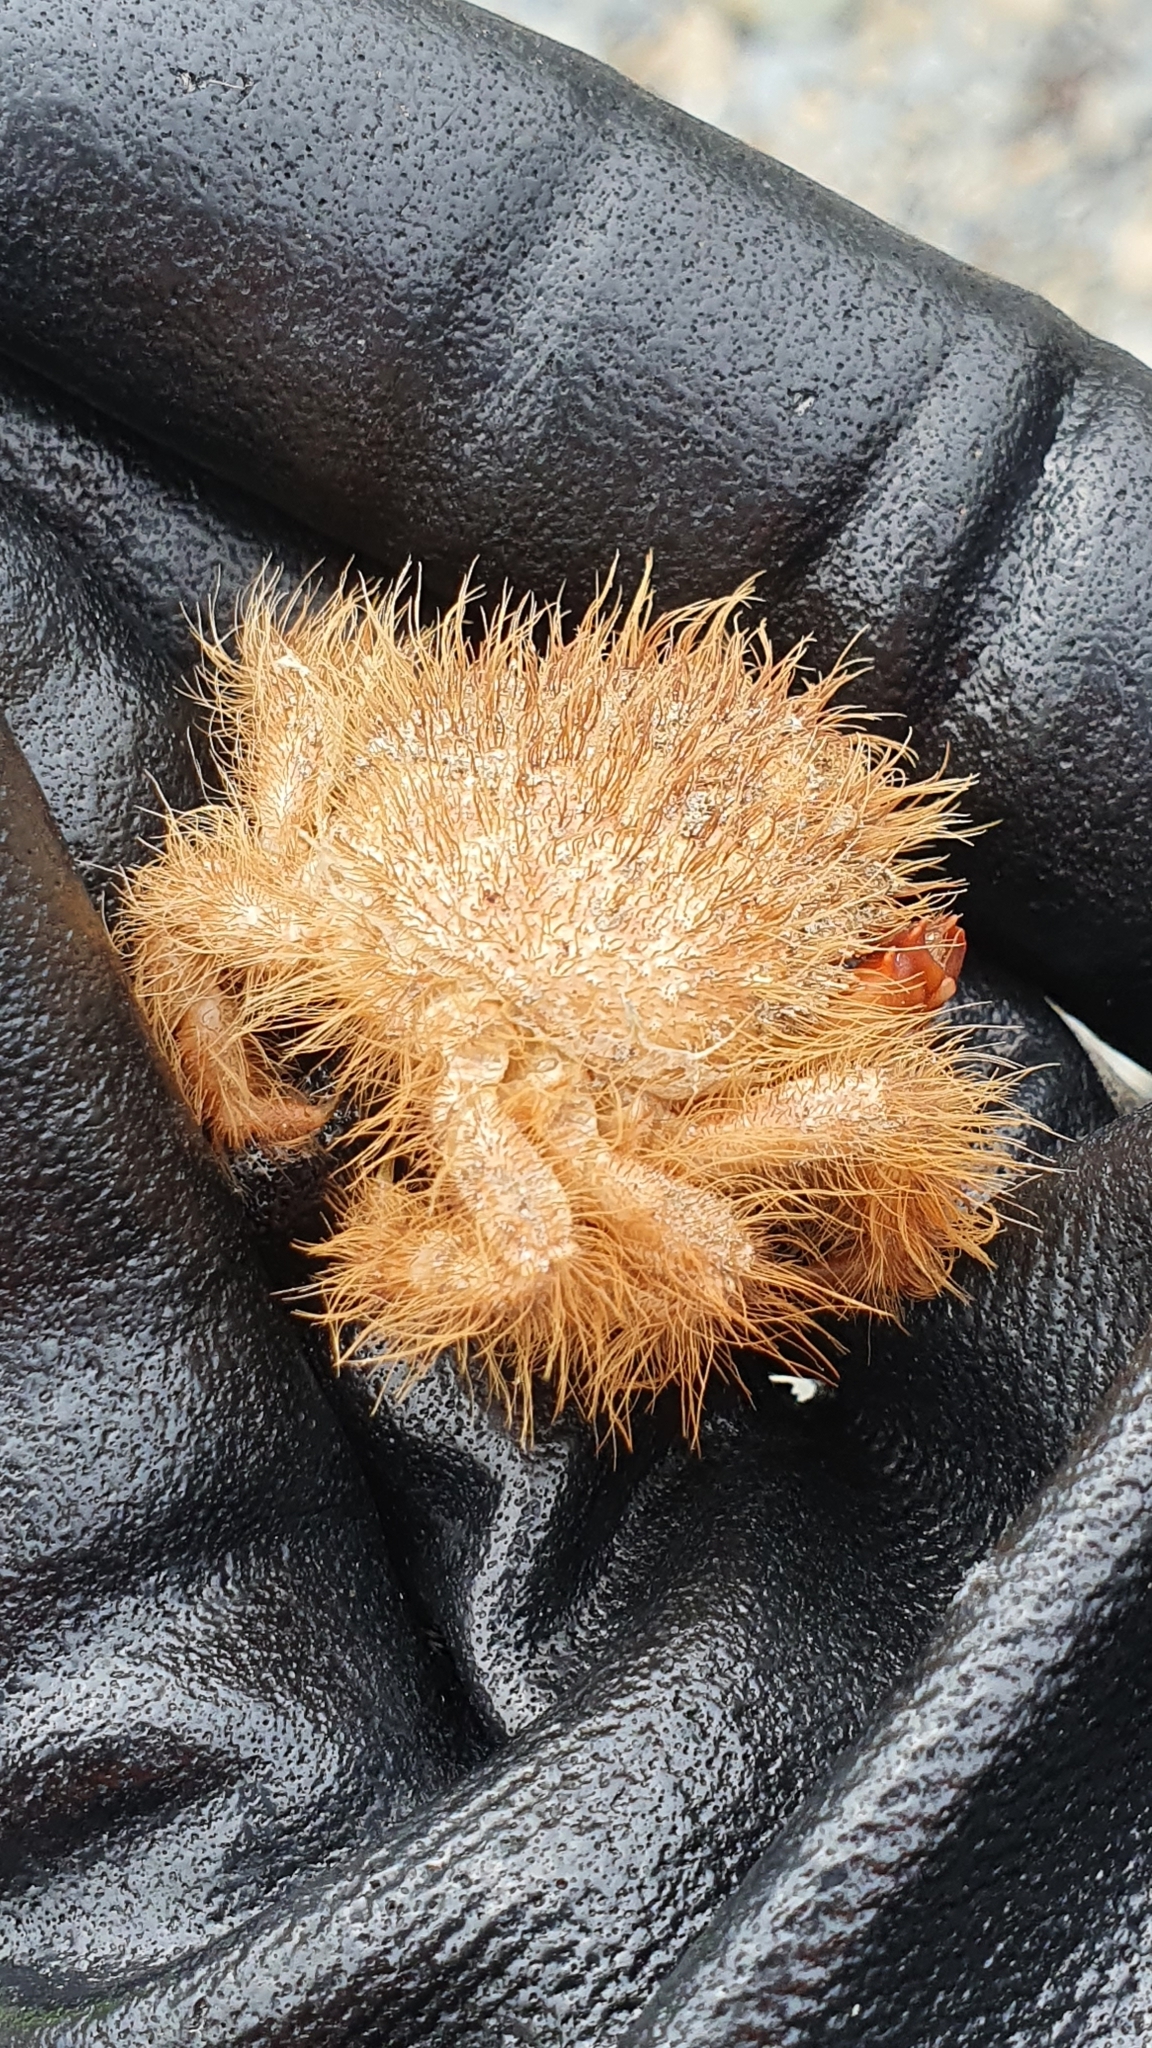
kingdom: Animalia
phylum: Arthropoda
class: Malacostraca
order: Decapoda
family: Majidae
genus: Notomithrax
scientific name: Notomithrax ursus
